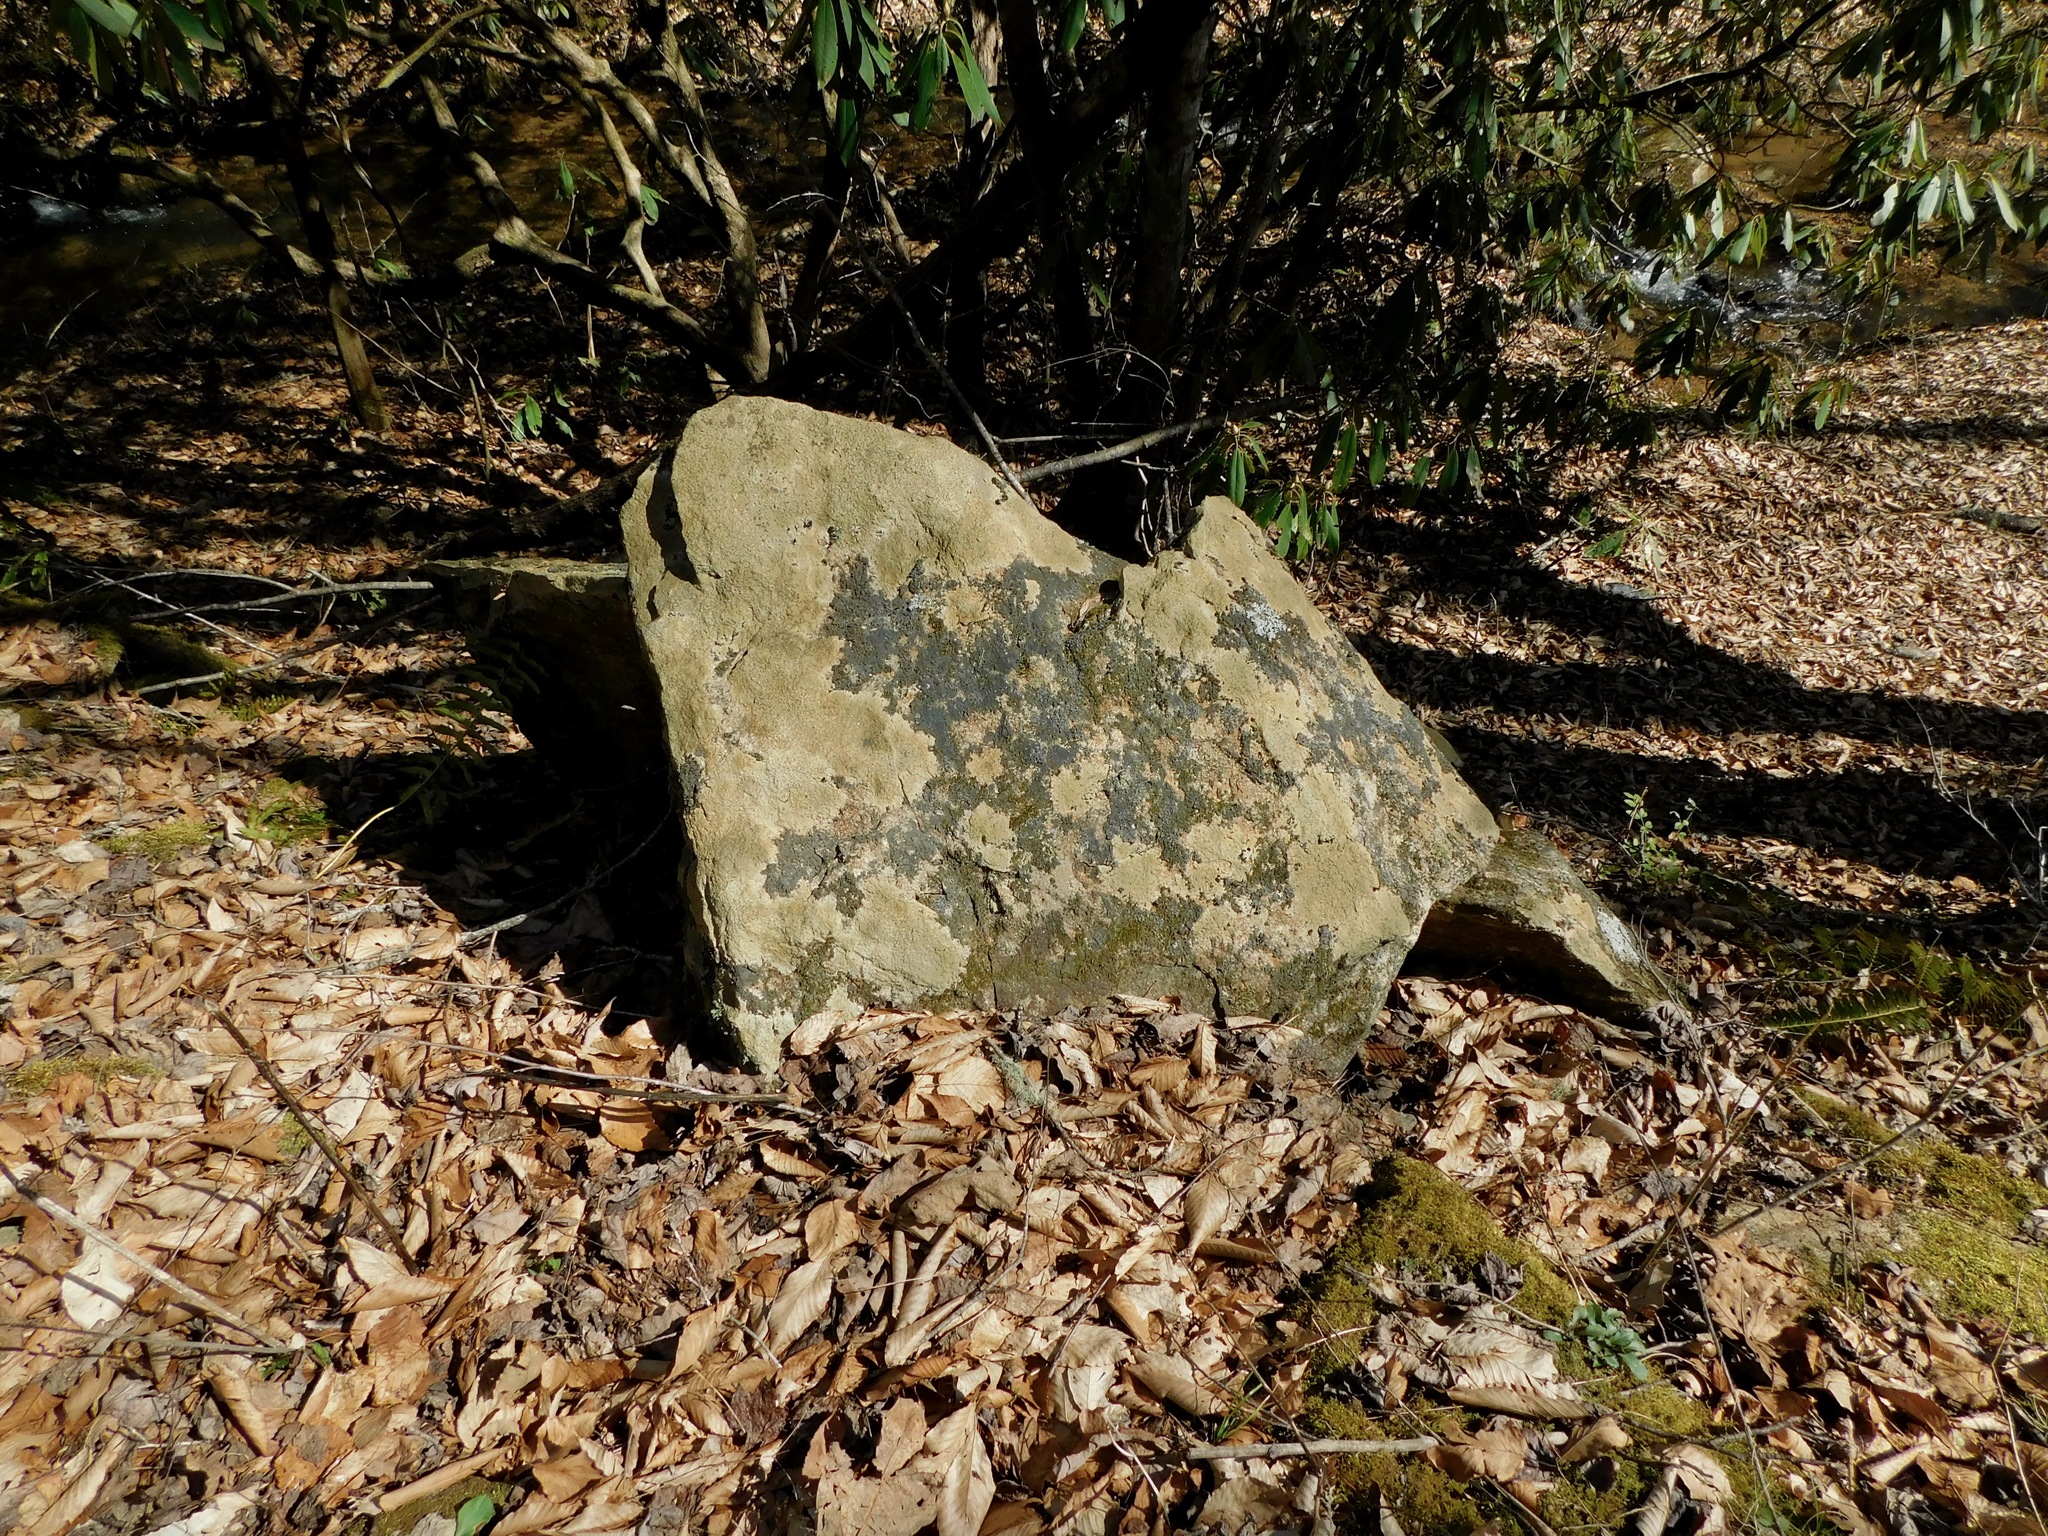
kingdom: Fungi
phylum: Ascomycota
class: Lecanoromycetes
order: Peltigerales
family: Collemataceae
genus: Leptogium
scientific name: Leptogium cyanescens
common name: Blue jellyskin
